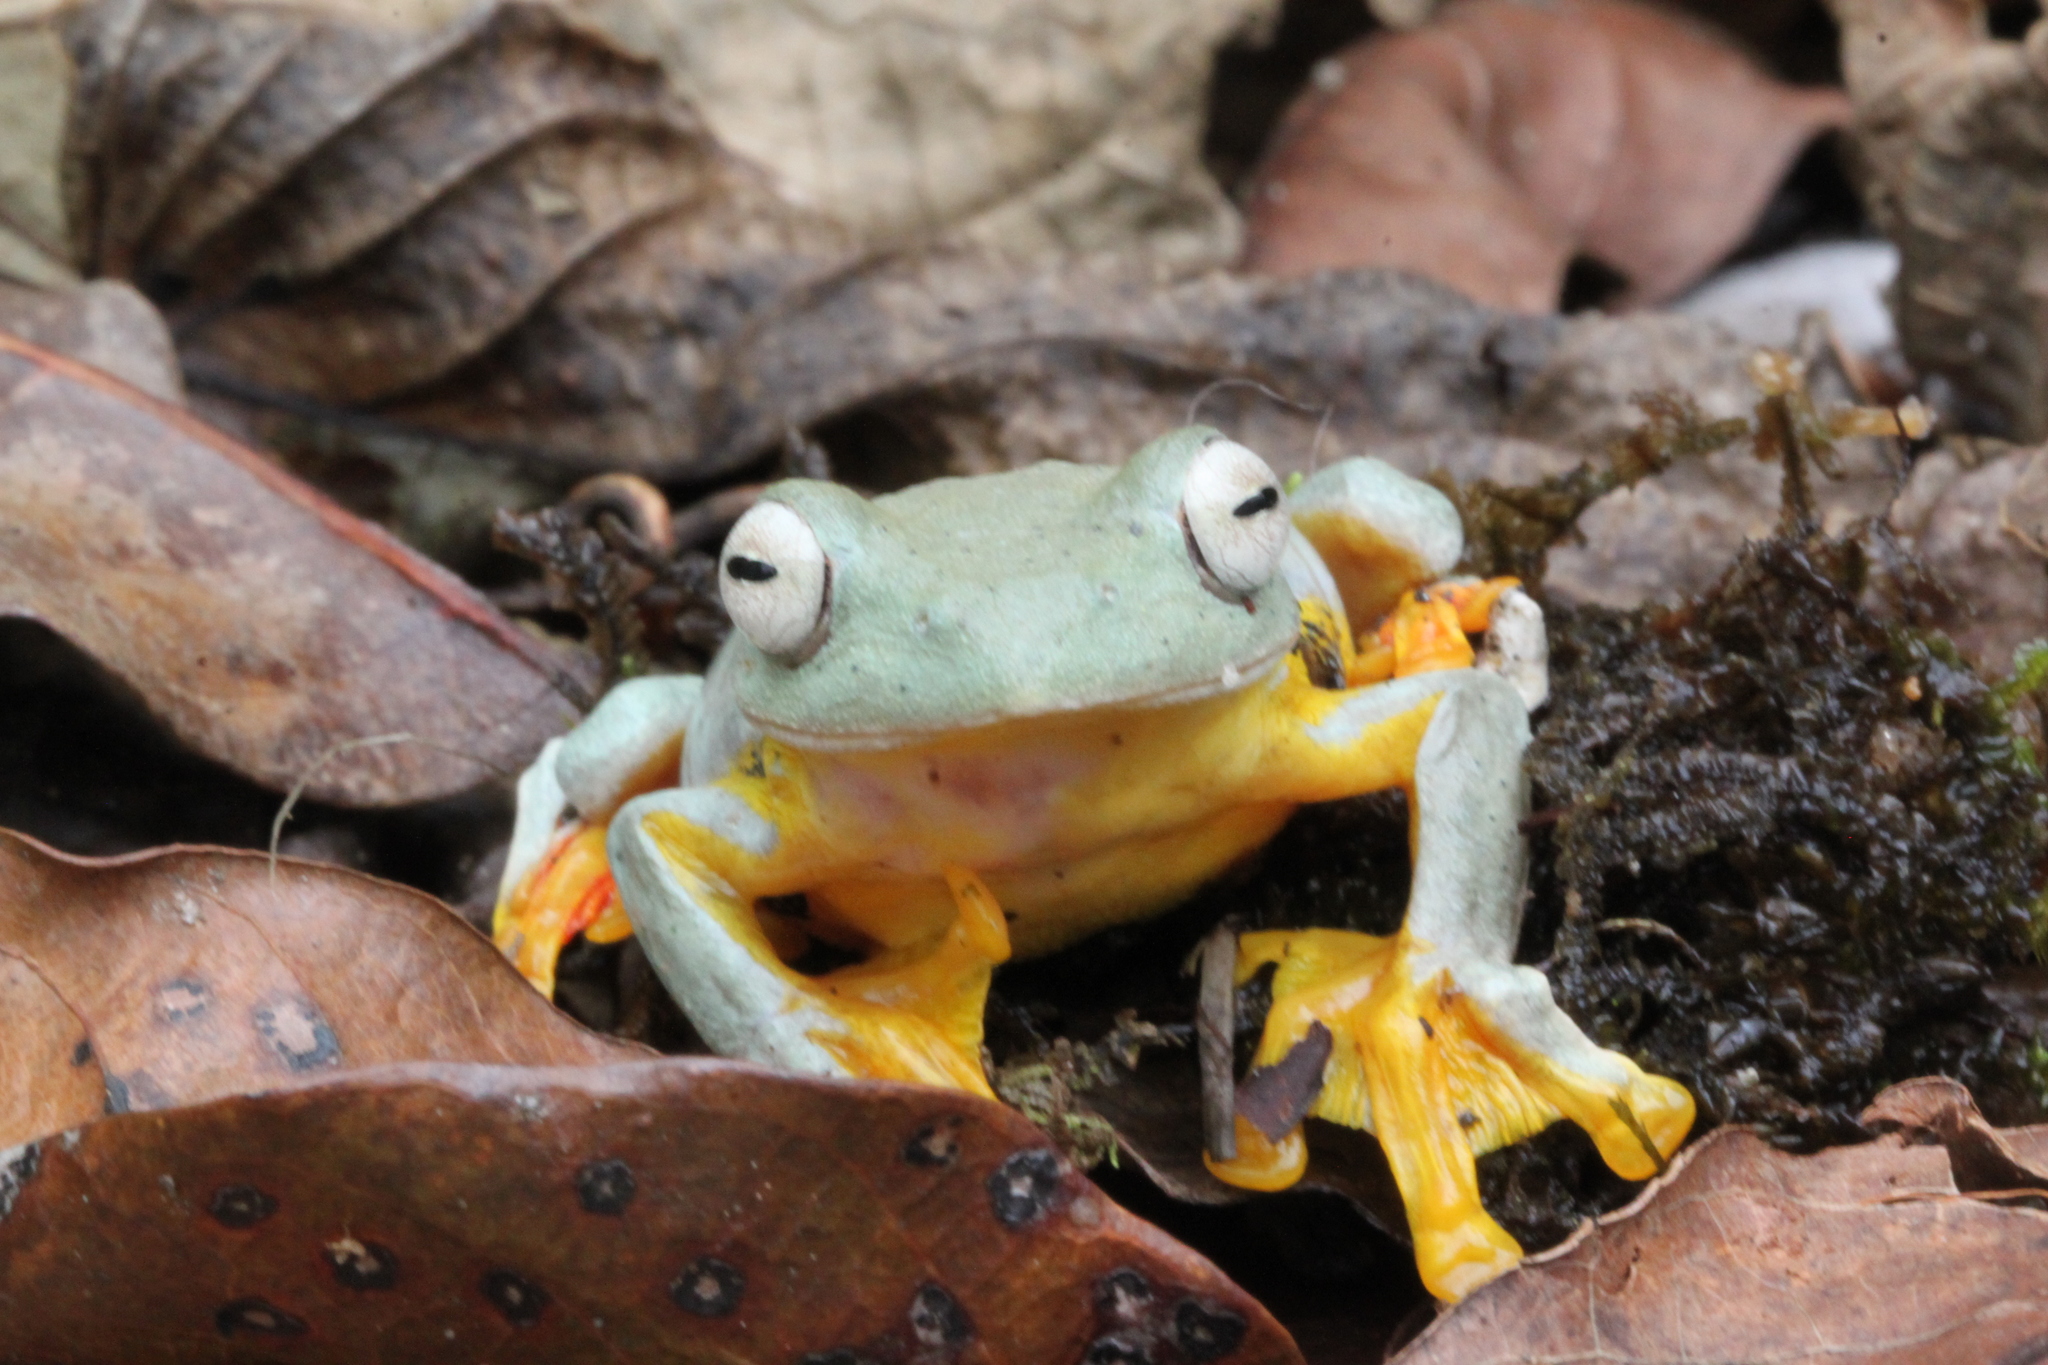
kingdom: Animalia
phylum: Chordata
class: Amphibia
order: Anura
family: Rhacophoridae
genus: Rhacophorus
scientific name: Rhacophorus rhodopus
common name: Namdapha bush frog
